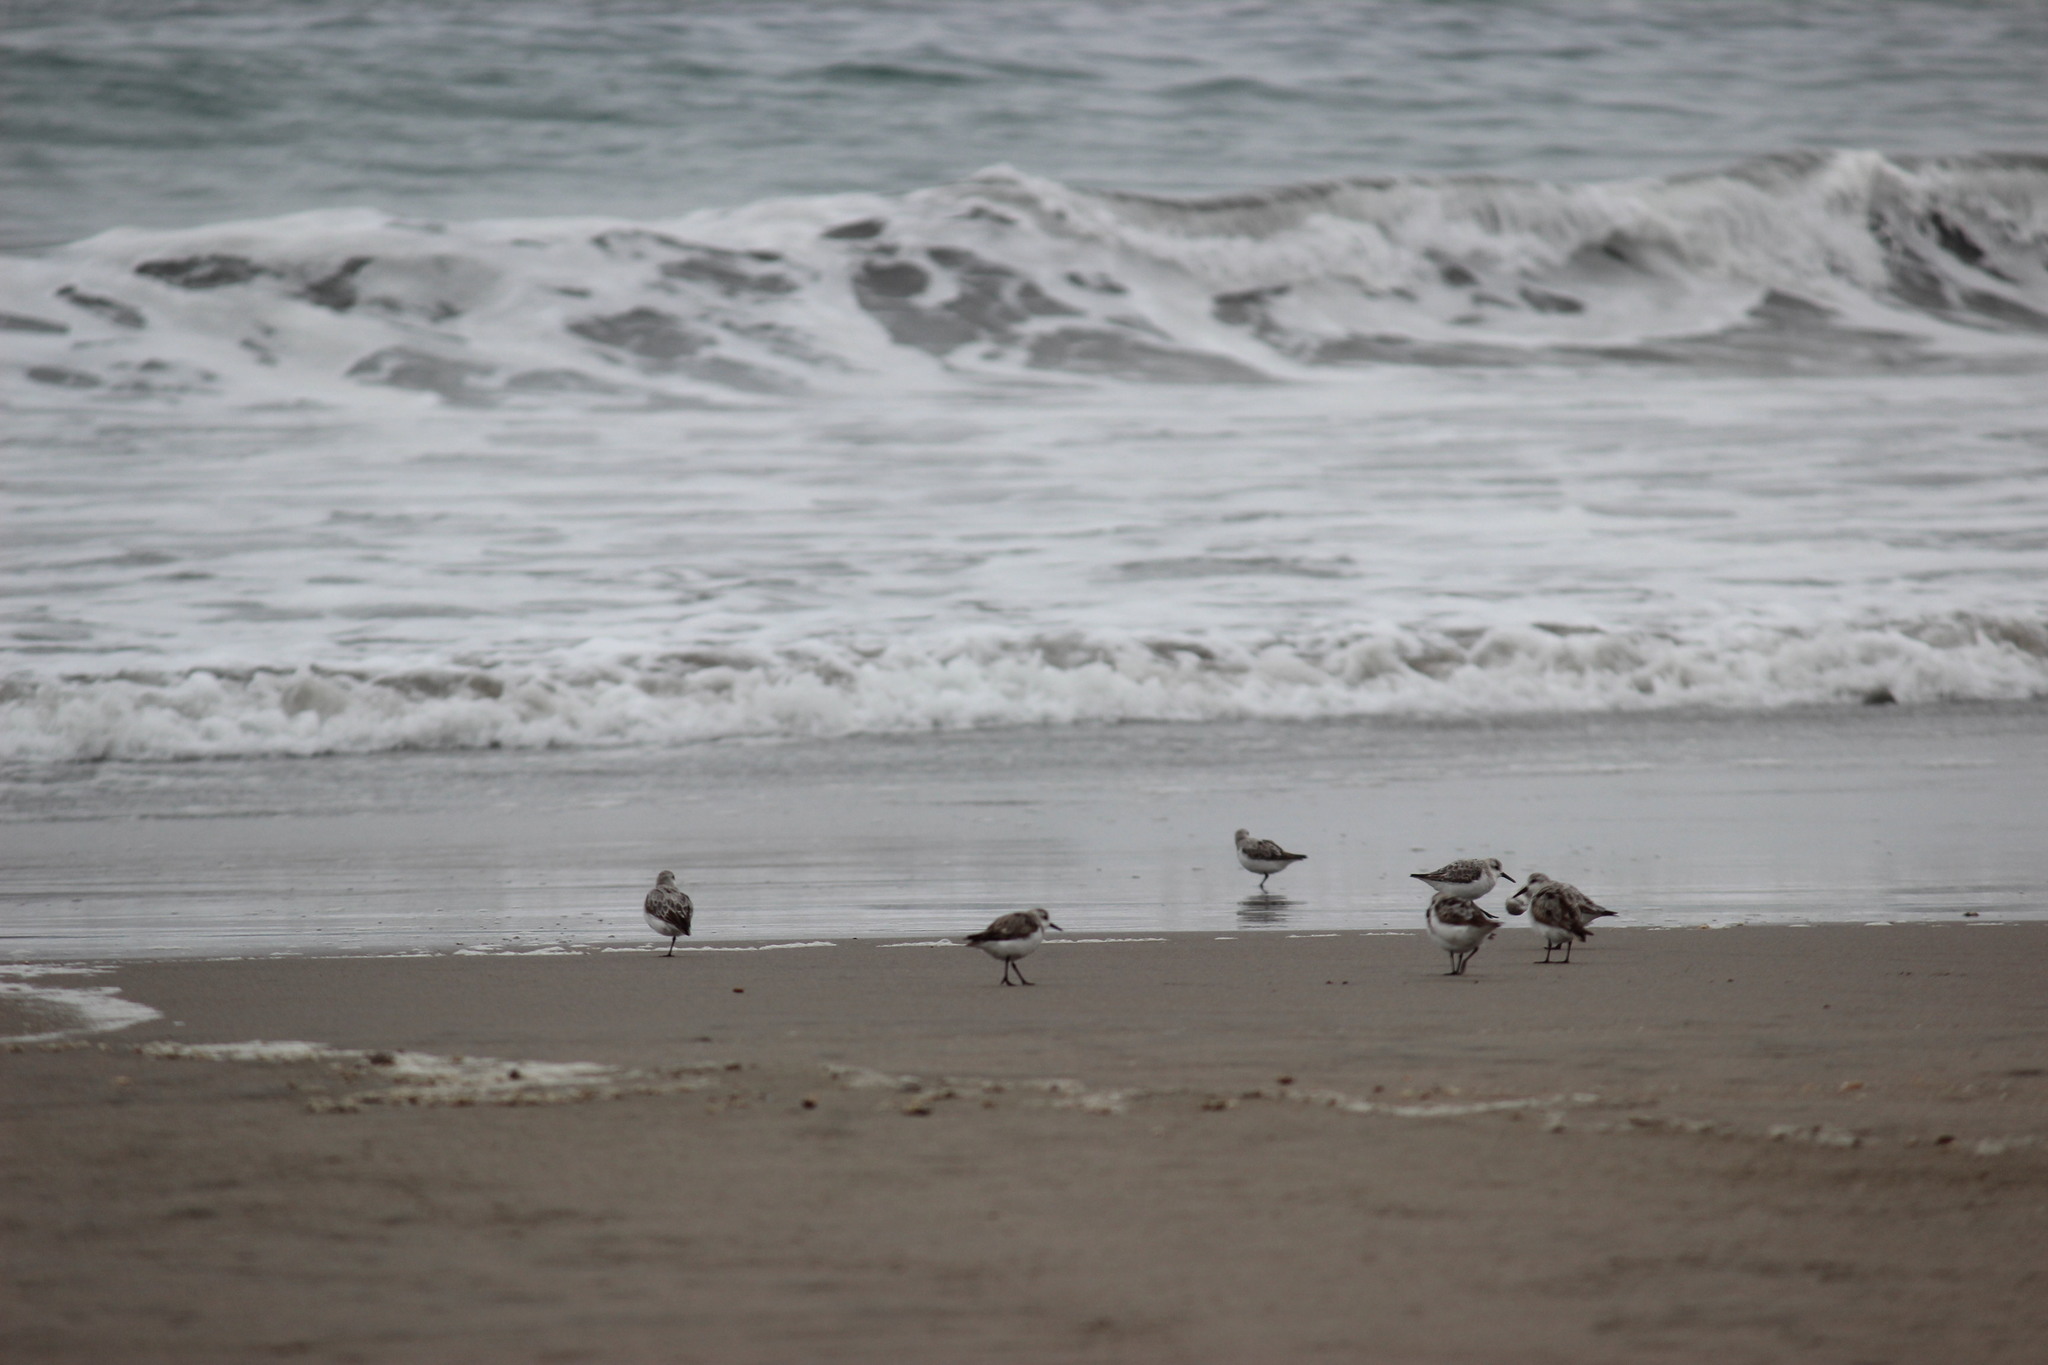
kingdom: Animalia
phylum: Chordata
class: Aves
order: Charadriiformes
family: Scolopacidae
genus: Calidris
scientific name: Calidris alba
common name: Sanderling
